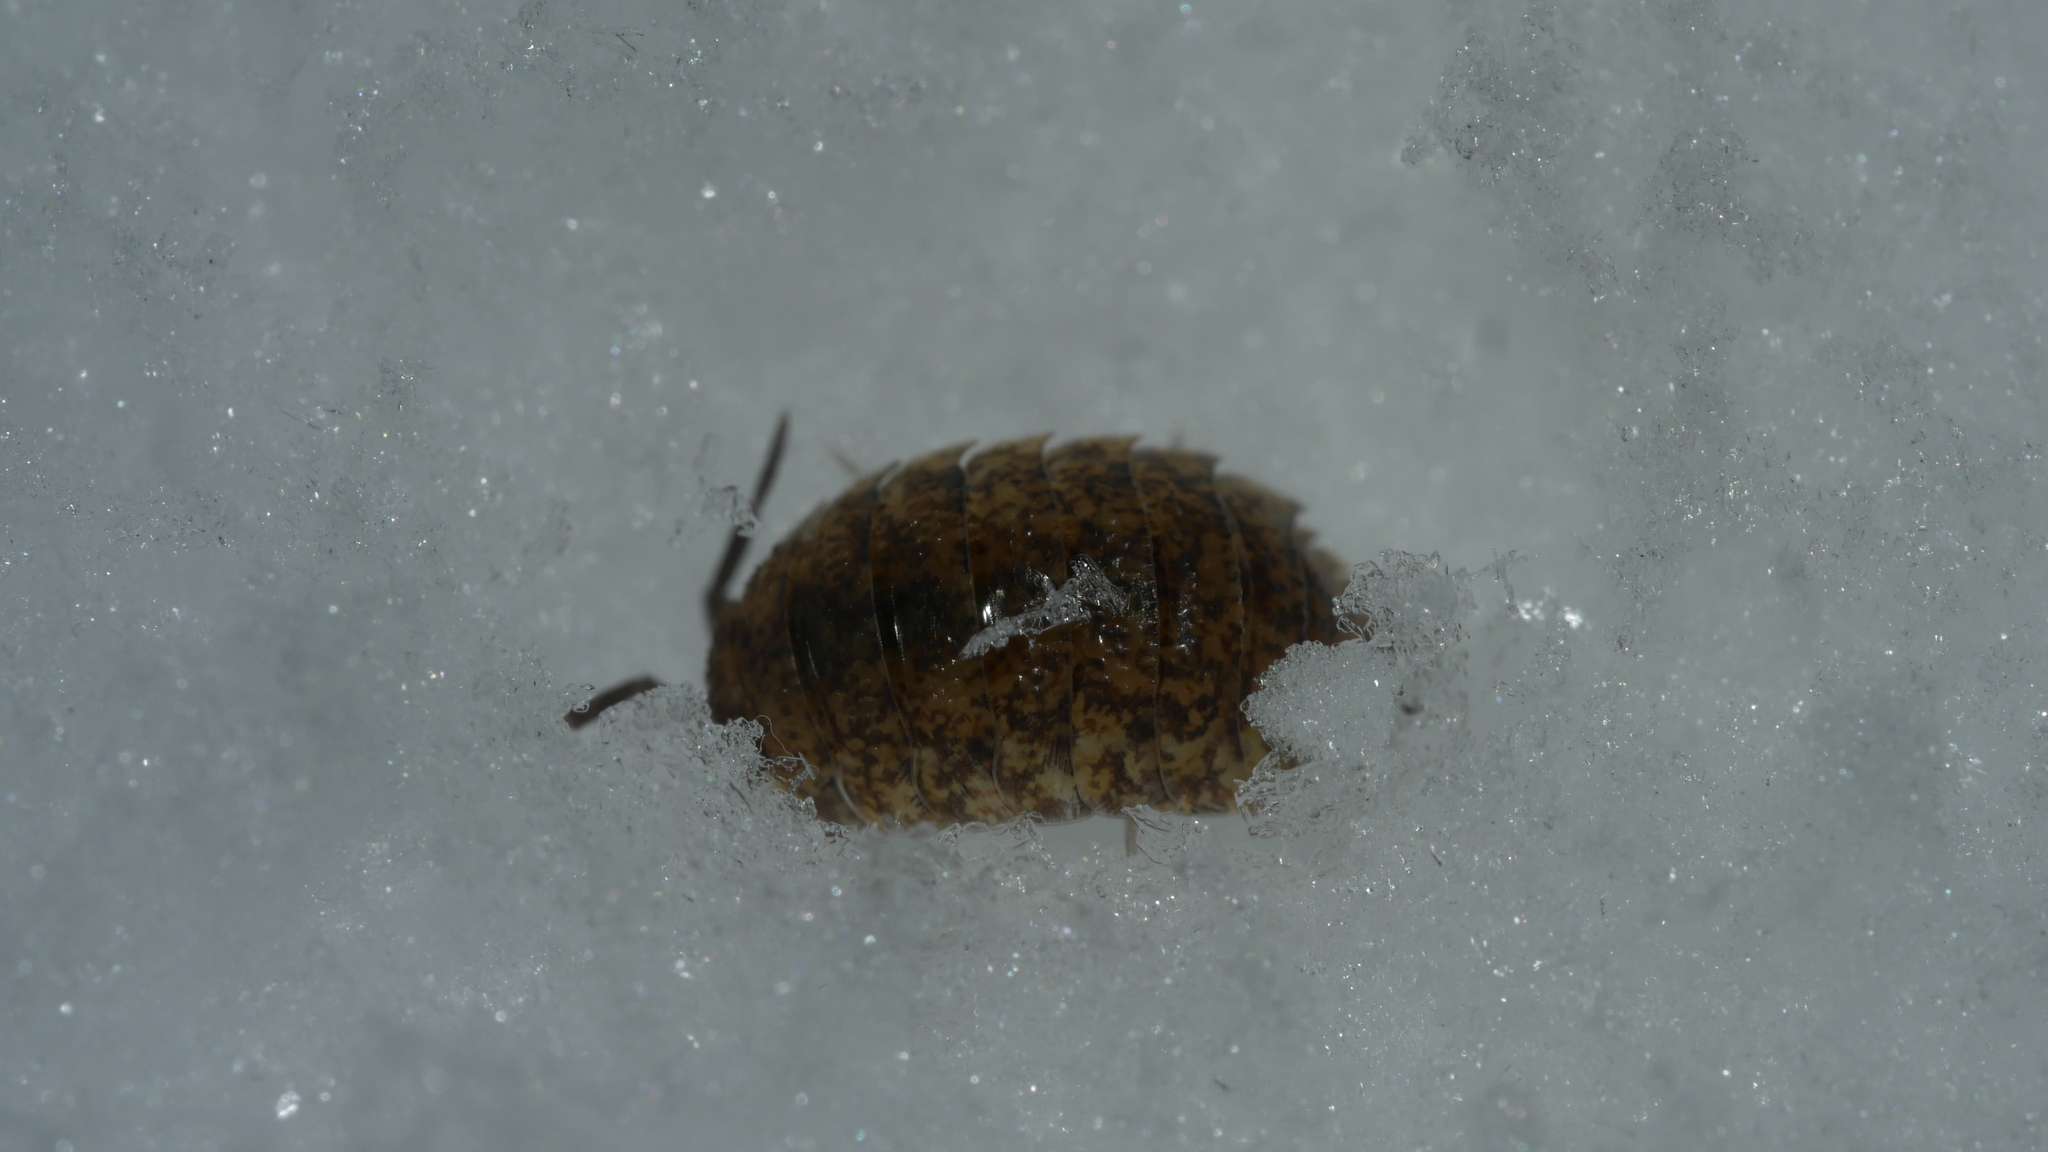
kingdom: Animalia
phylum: Arthropoda
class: Malacostraca
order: Isopoda
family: Porcellionidae
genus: Porcellio
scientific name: Porcellio scaber
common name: Common rough woodlouse
